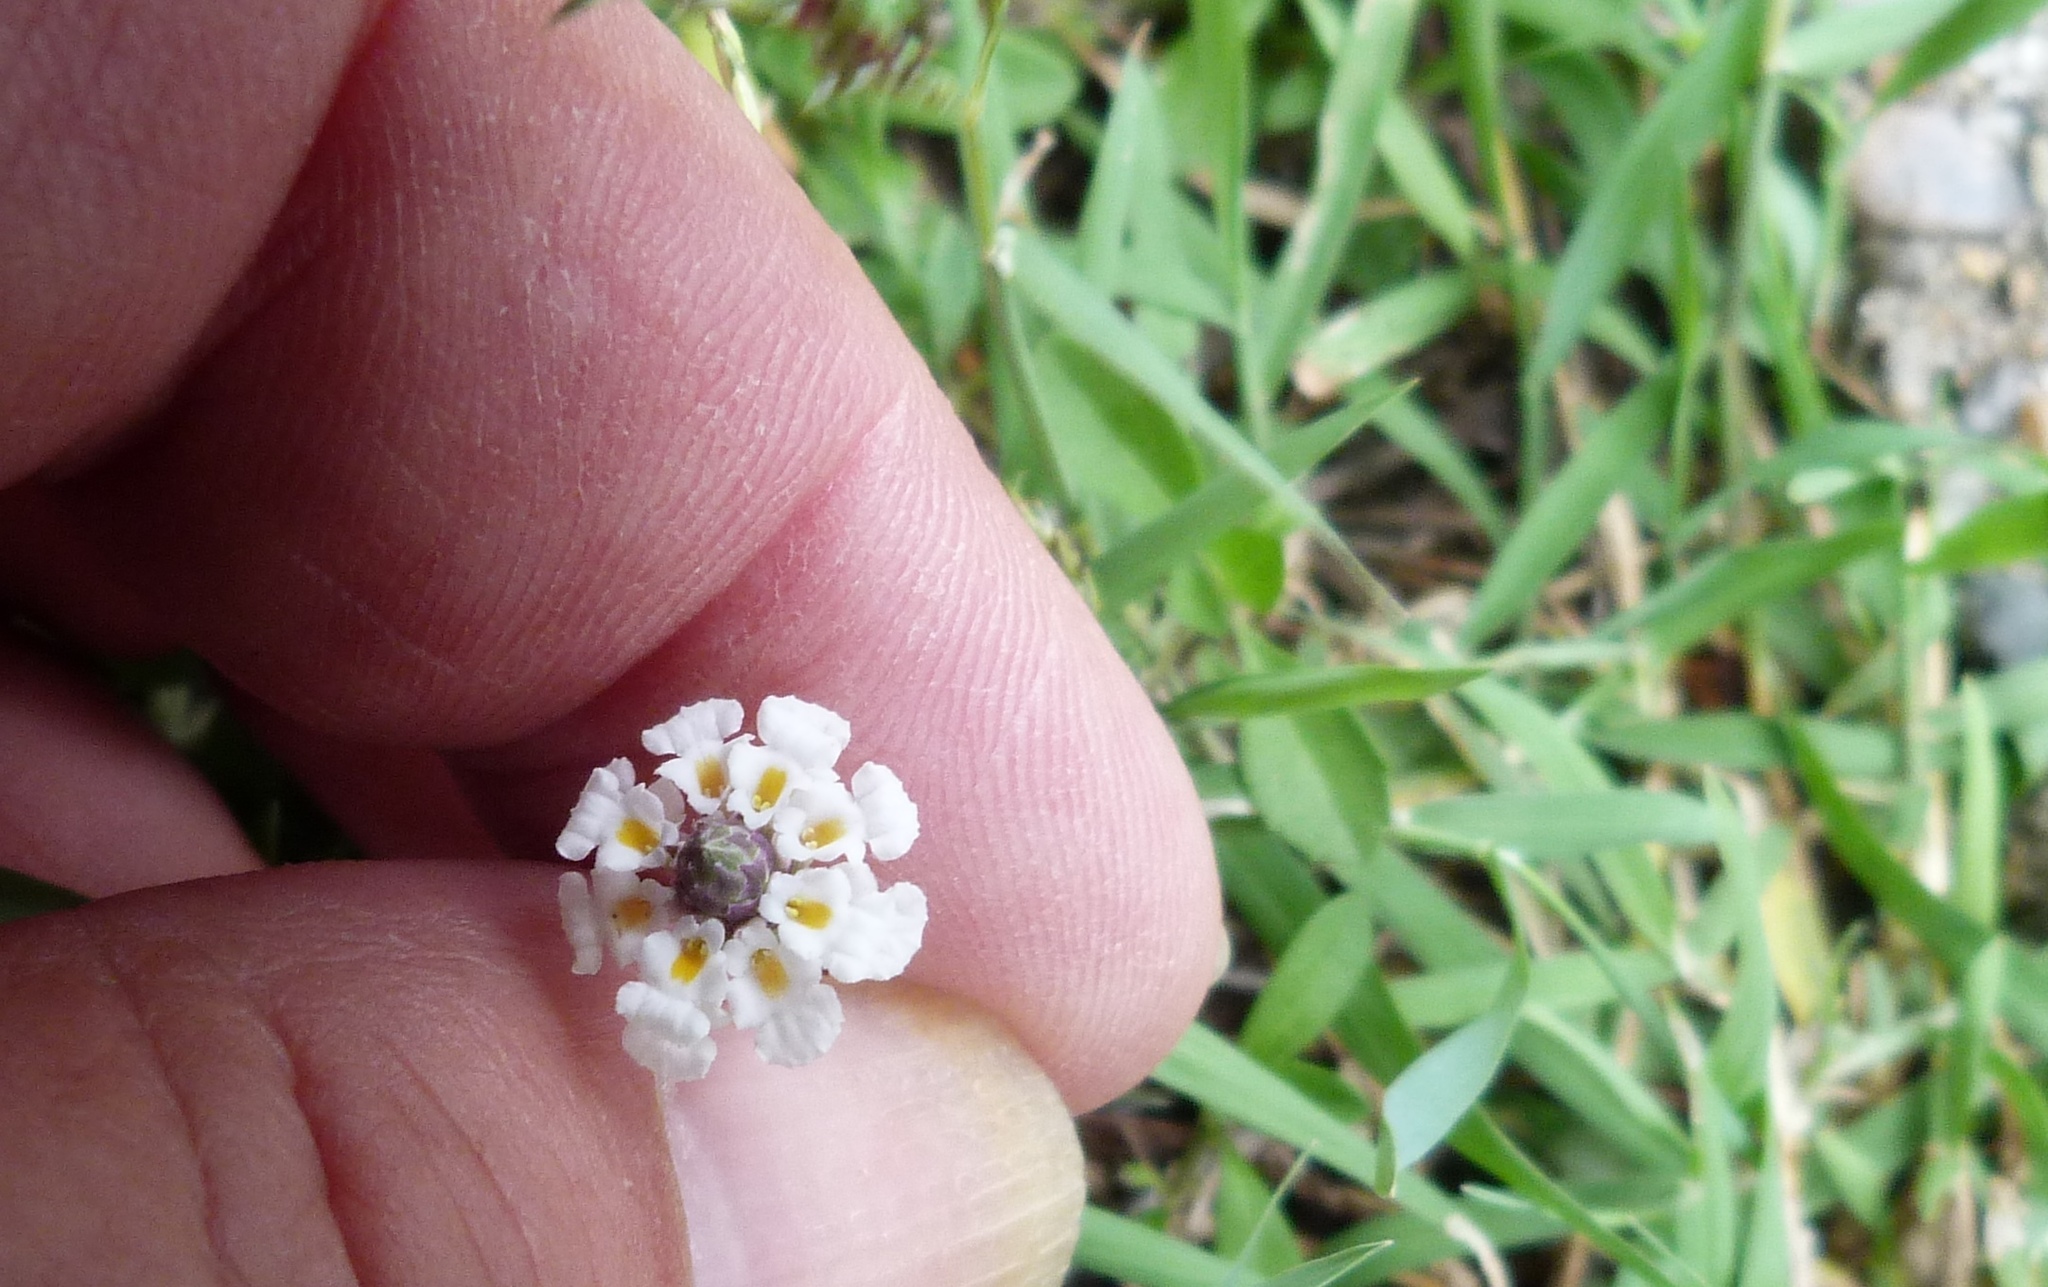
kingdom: Plantae
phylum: Tracheophyta
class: Magnoliopsida
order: Lamiales
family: Verbenaceae
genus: Phyla
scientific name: Phyla nodiflora
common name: Frogfruit
